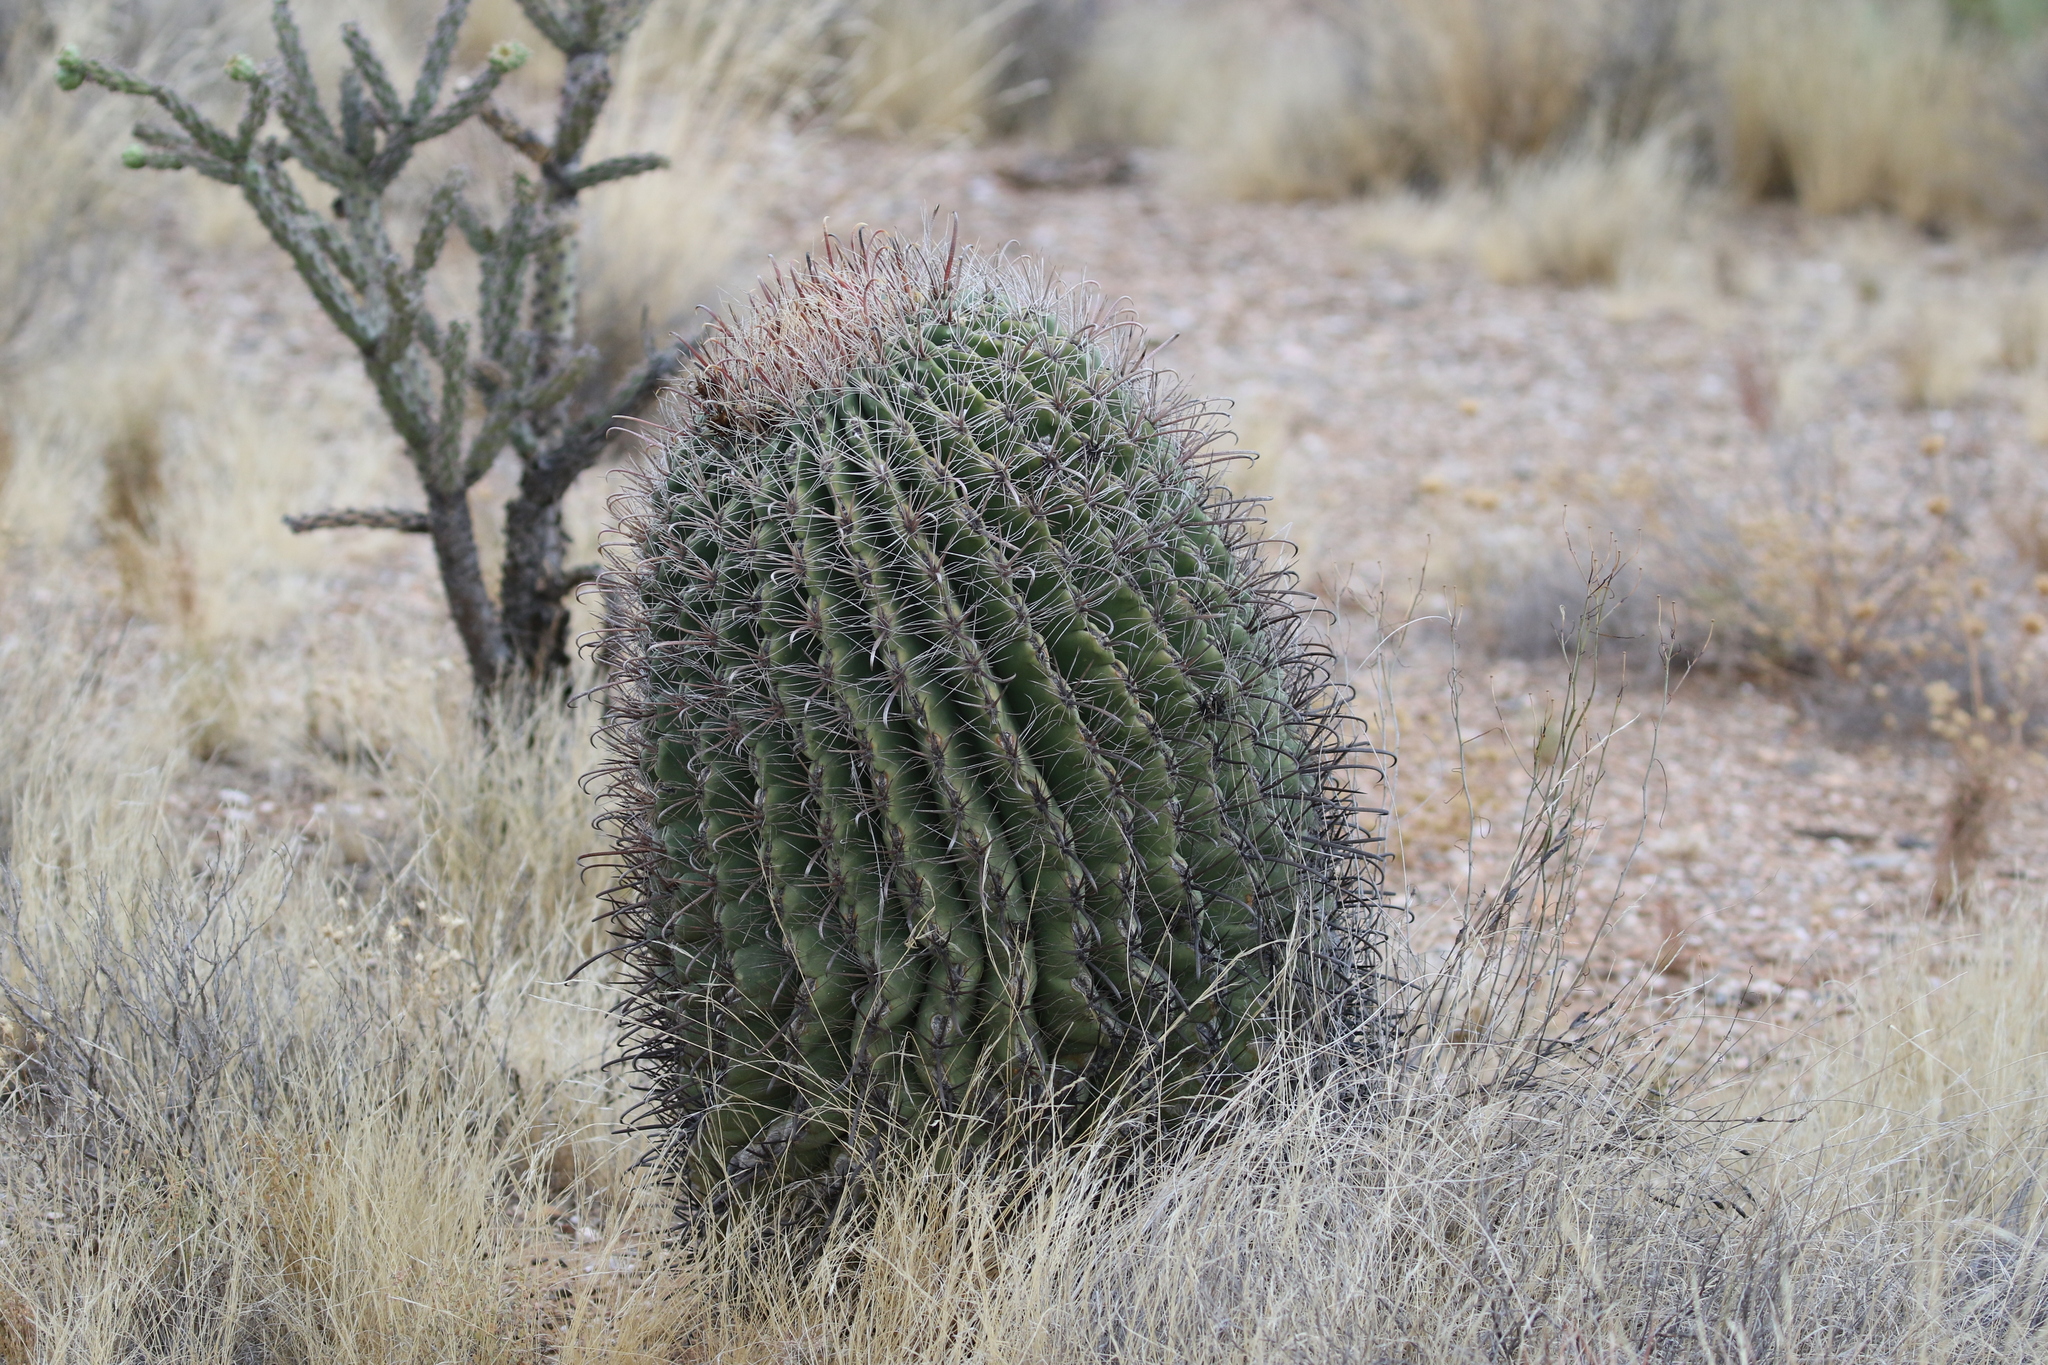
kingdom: Plantae
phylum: Tracheophyta
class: Magnoliopsida
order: Caryophyllales
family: Cactaceae
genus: Ferocactus
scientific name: Ferocactus wislizeni
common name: Candy barrel cactus
